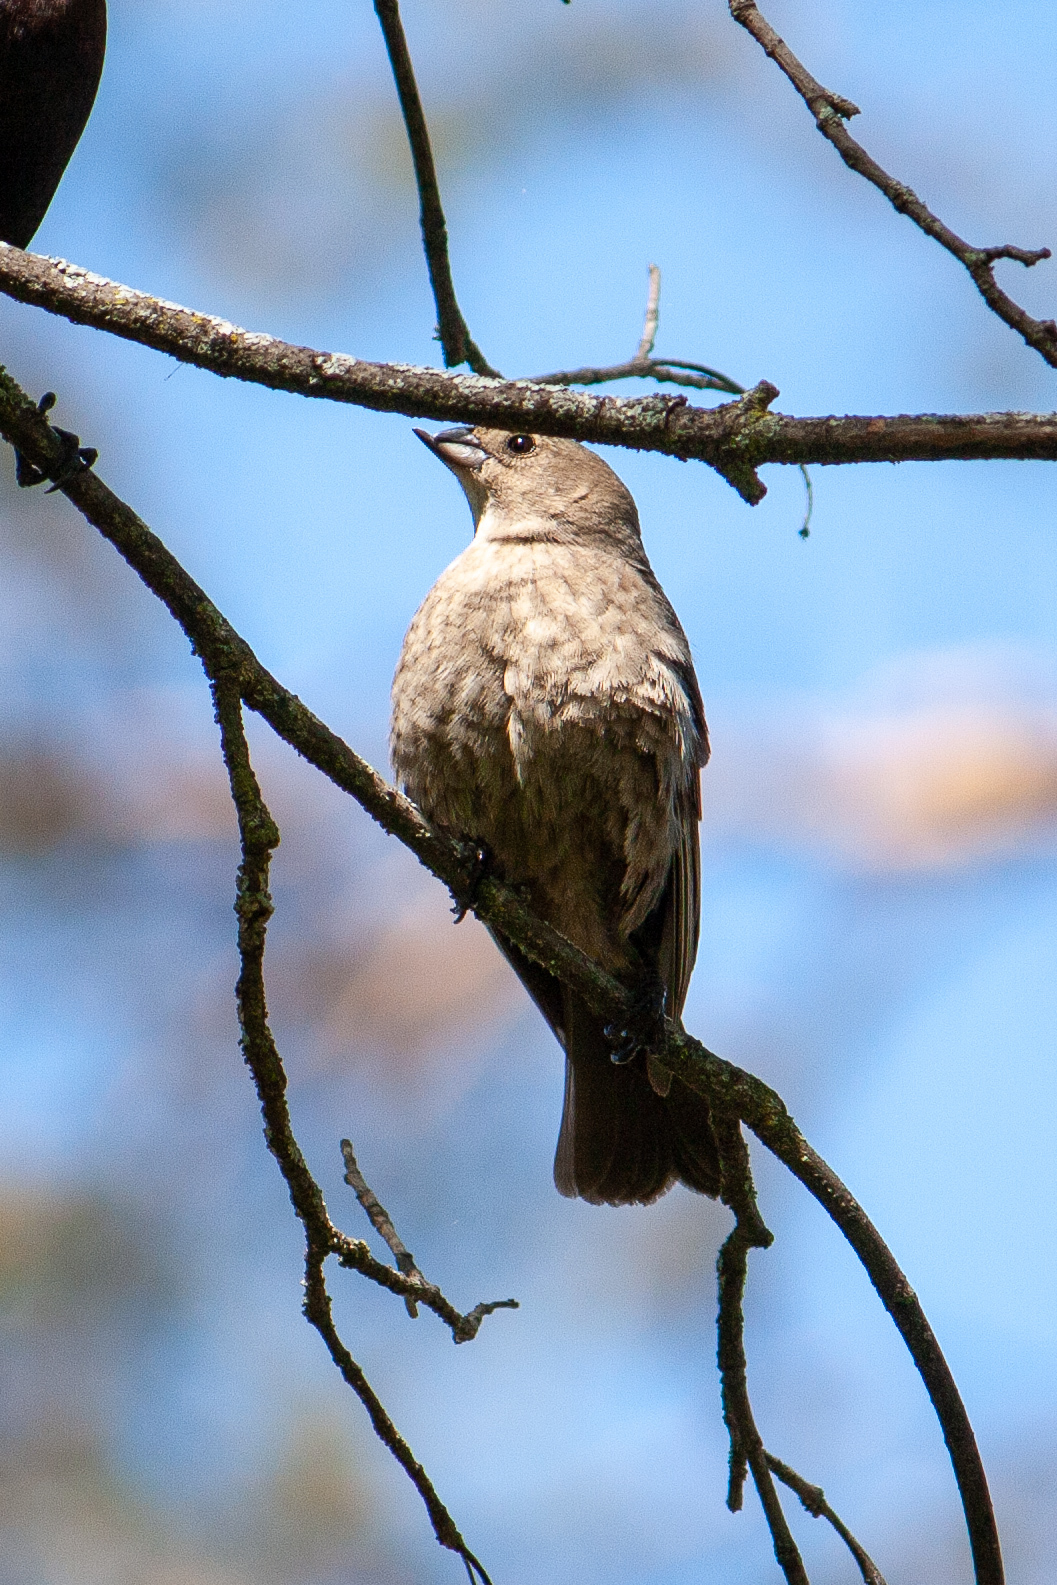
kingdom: Animalia
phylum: Chordata
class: Aves
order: Passeriformes
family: Icteridae
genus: Molothrus
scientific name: Molothrus ater
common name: Brown-headed cowbird
